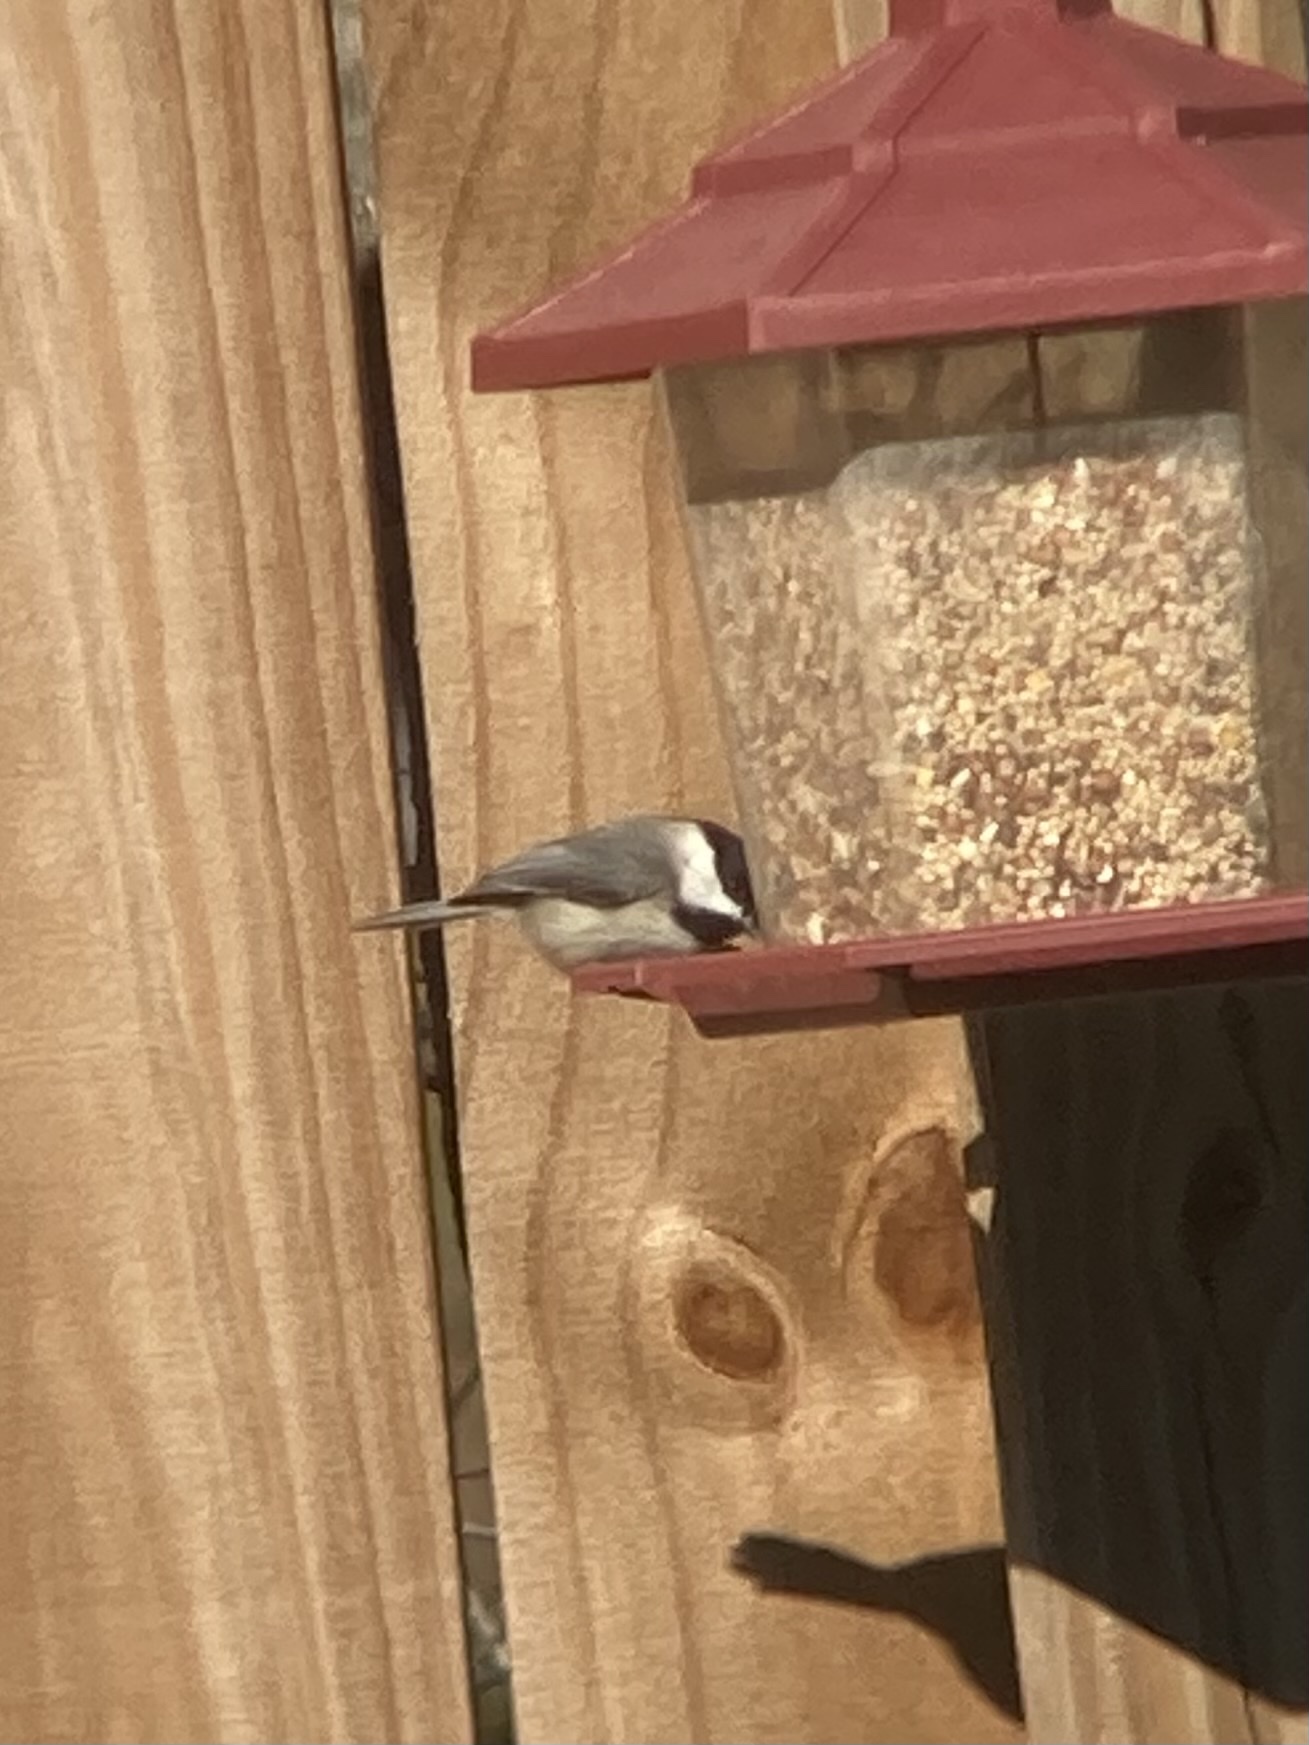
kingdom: Animalia
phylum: Chordata
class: Aves
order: Passeriformes
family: Paridae
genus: Poecile
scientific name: Poecile carolinensis
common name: Carolina chickadee
